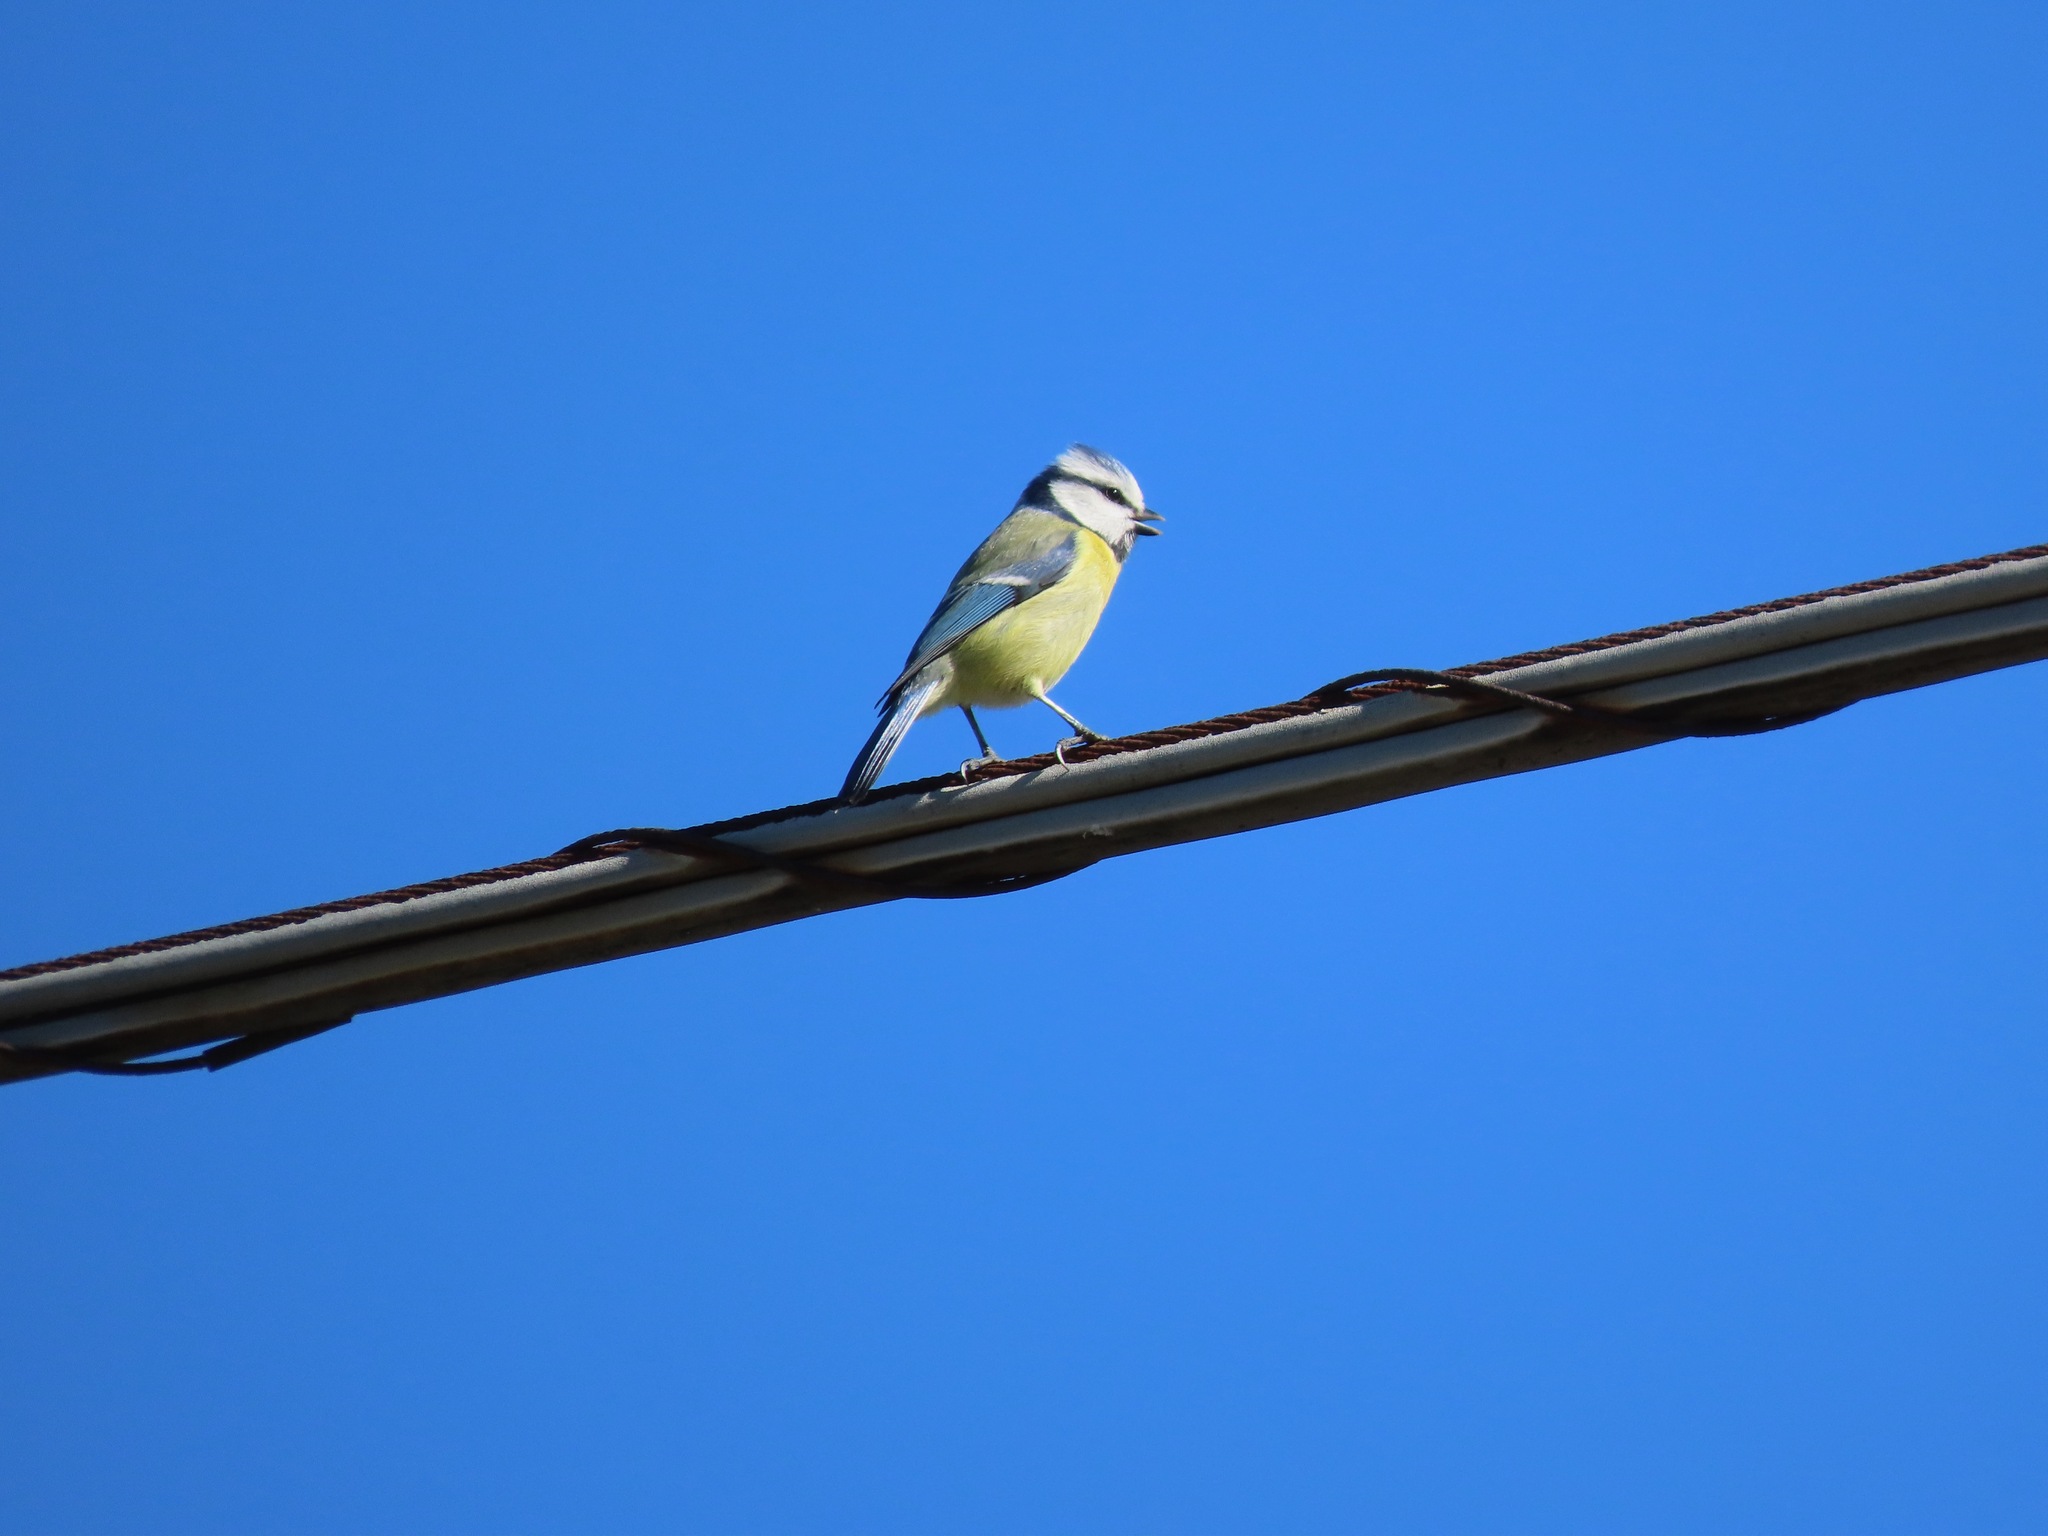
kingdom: Animalia
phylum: Chordata
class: Aves
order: Passeriformes
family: Paridae
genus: Cyanistes
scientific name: Cyanistes caeruleus
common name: Eurasian blue tit
